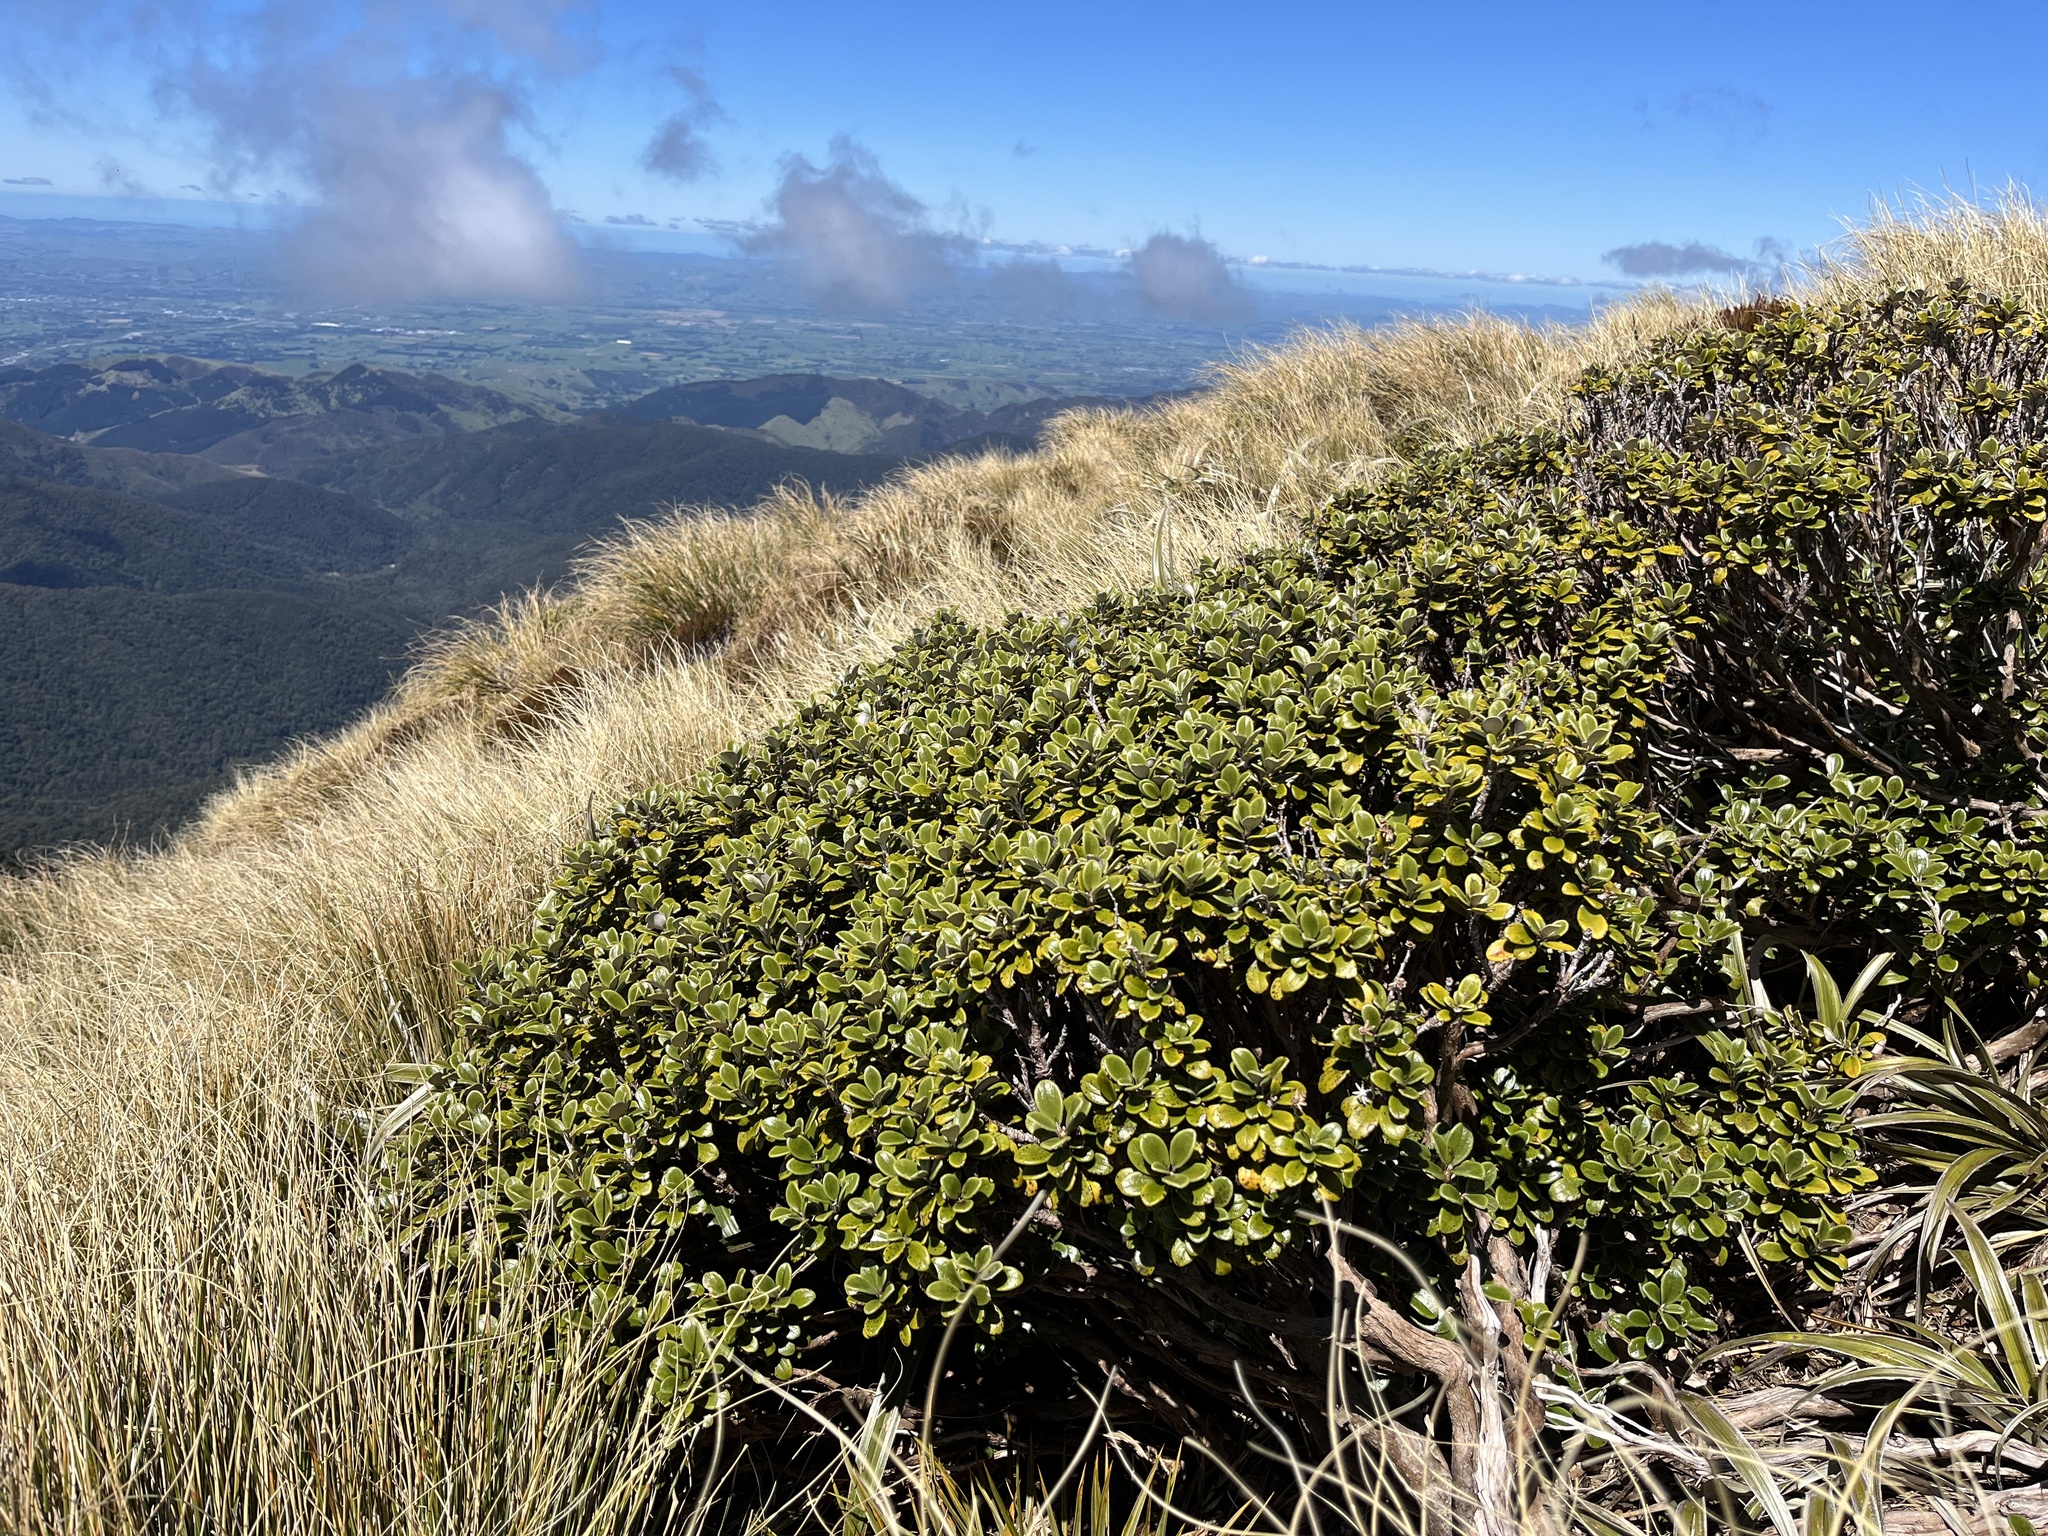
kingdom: Plantae
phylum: Tracheophyta
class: Magnoliopsida
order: Asterales
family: Asteraceae
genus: Brachyglottis
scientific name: Brachyglottis bidwillii
